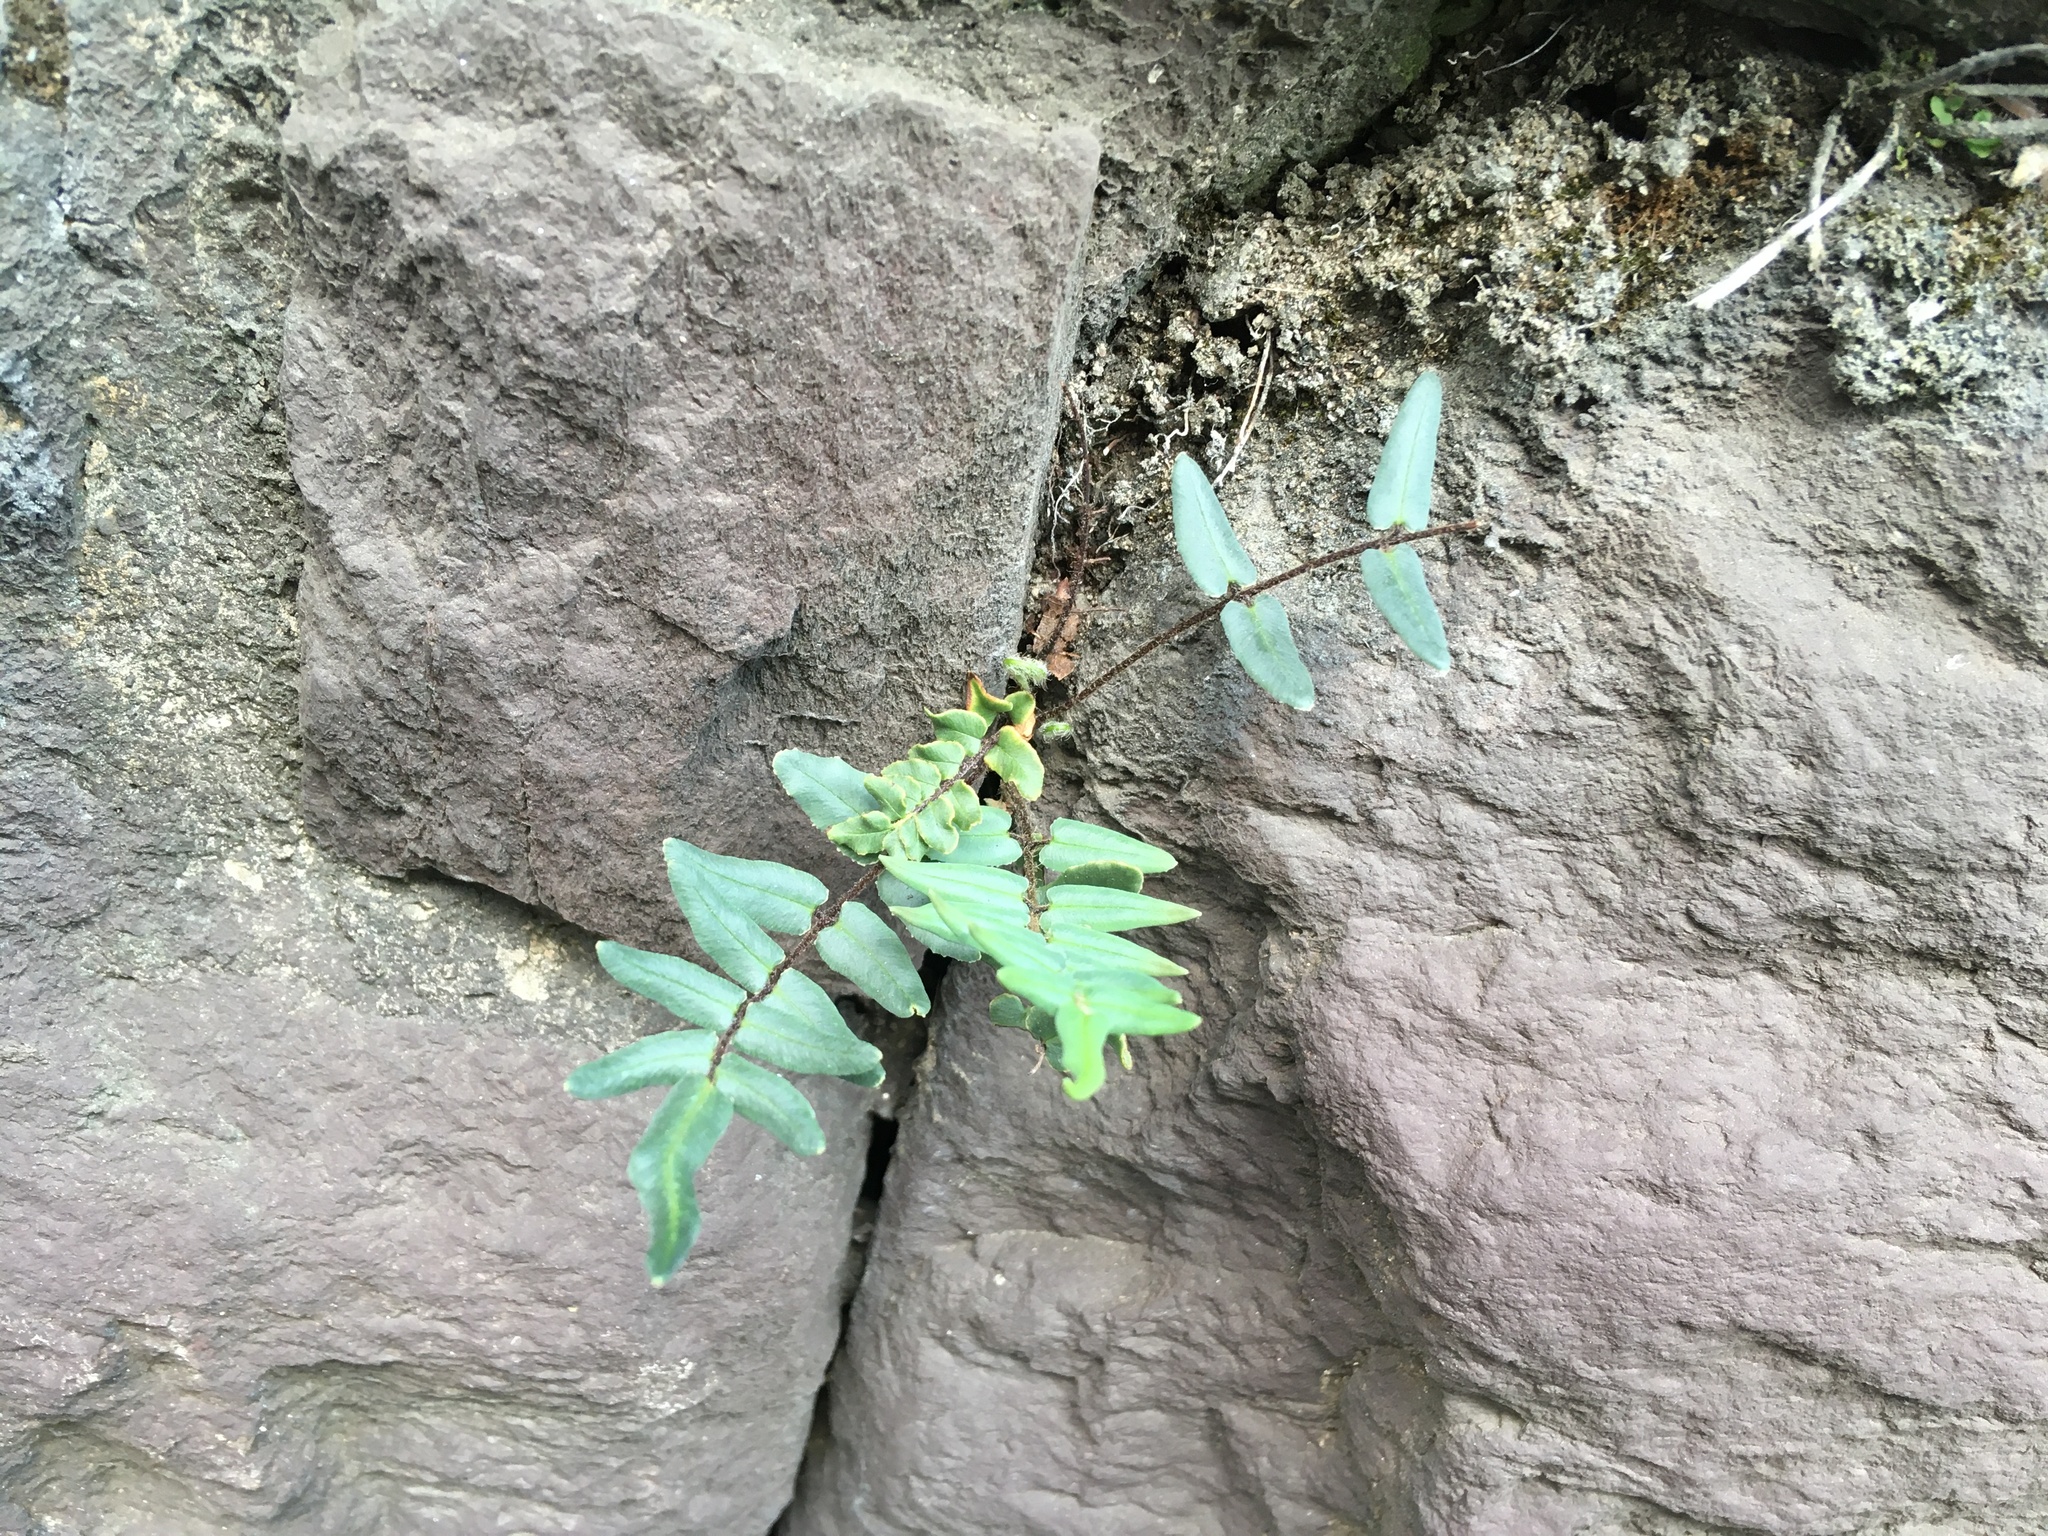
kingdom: Plantae
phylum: Tracheophyta
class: Polypodiopsida
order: Polypodiales
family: Pteridaceae
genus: Pellaea
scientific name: Pellaea atropurpurea
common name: Hairy cliffbrake
